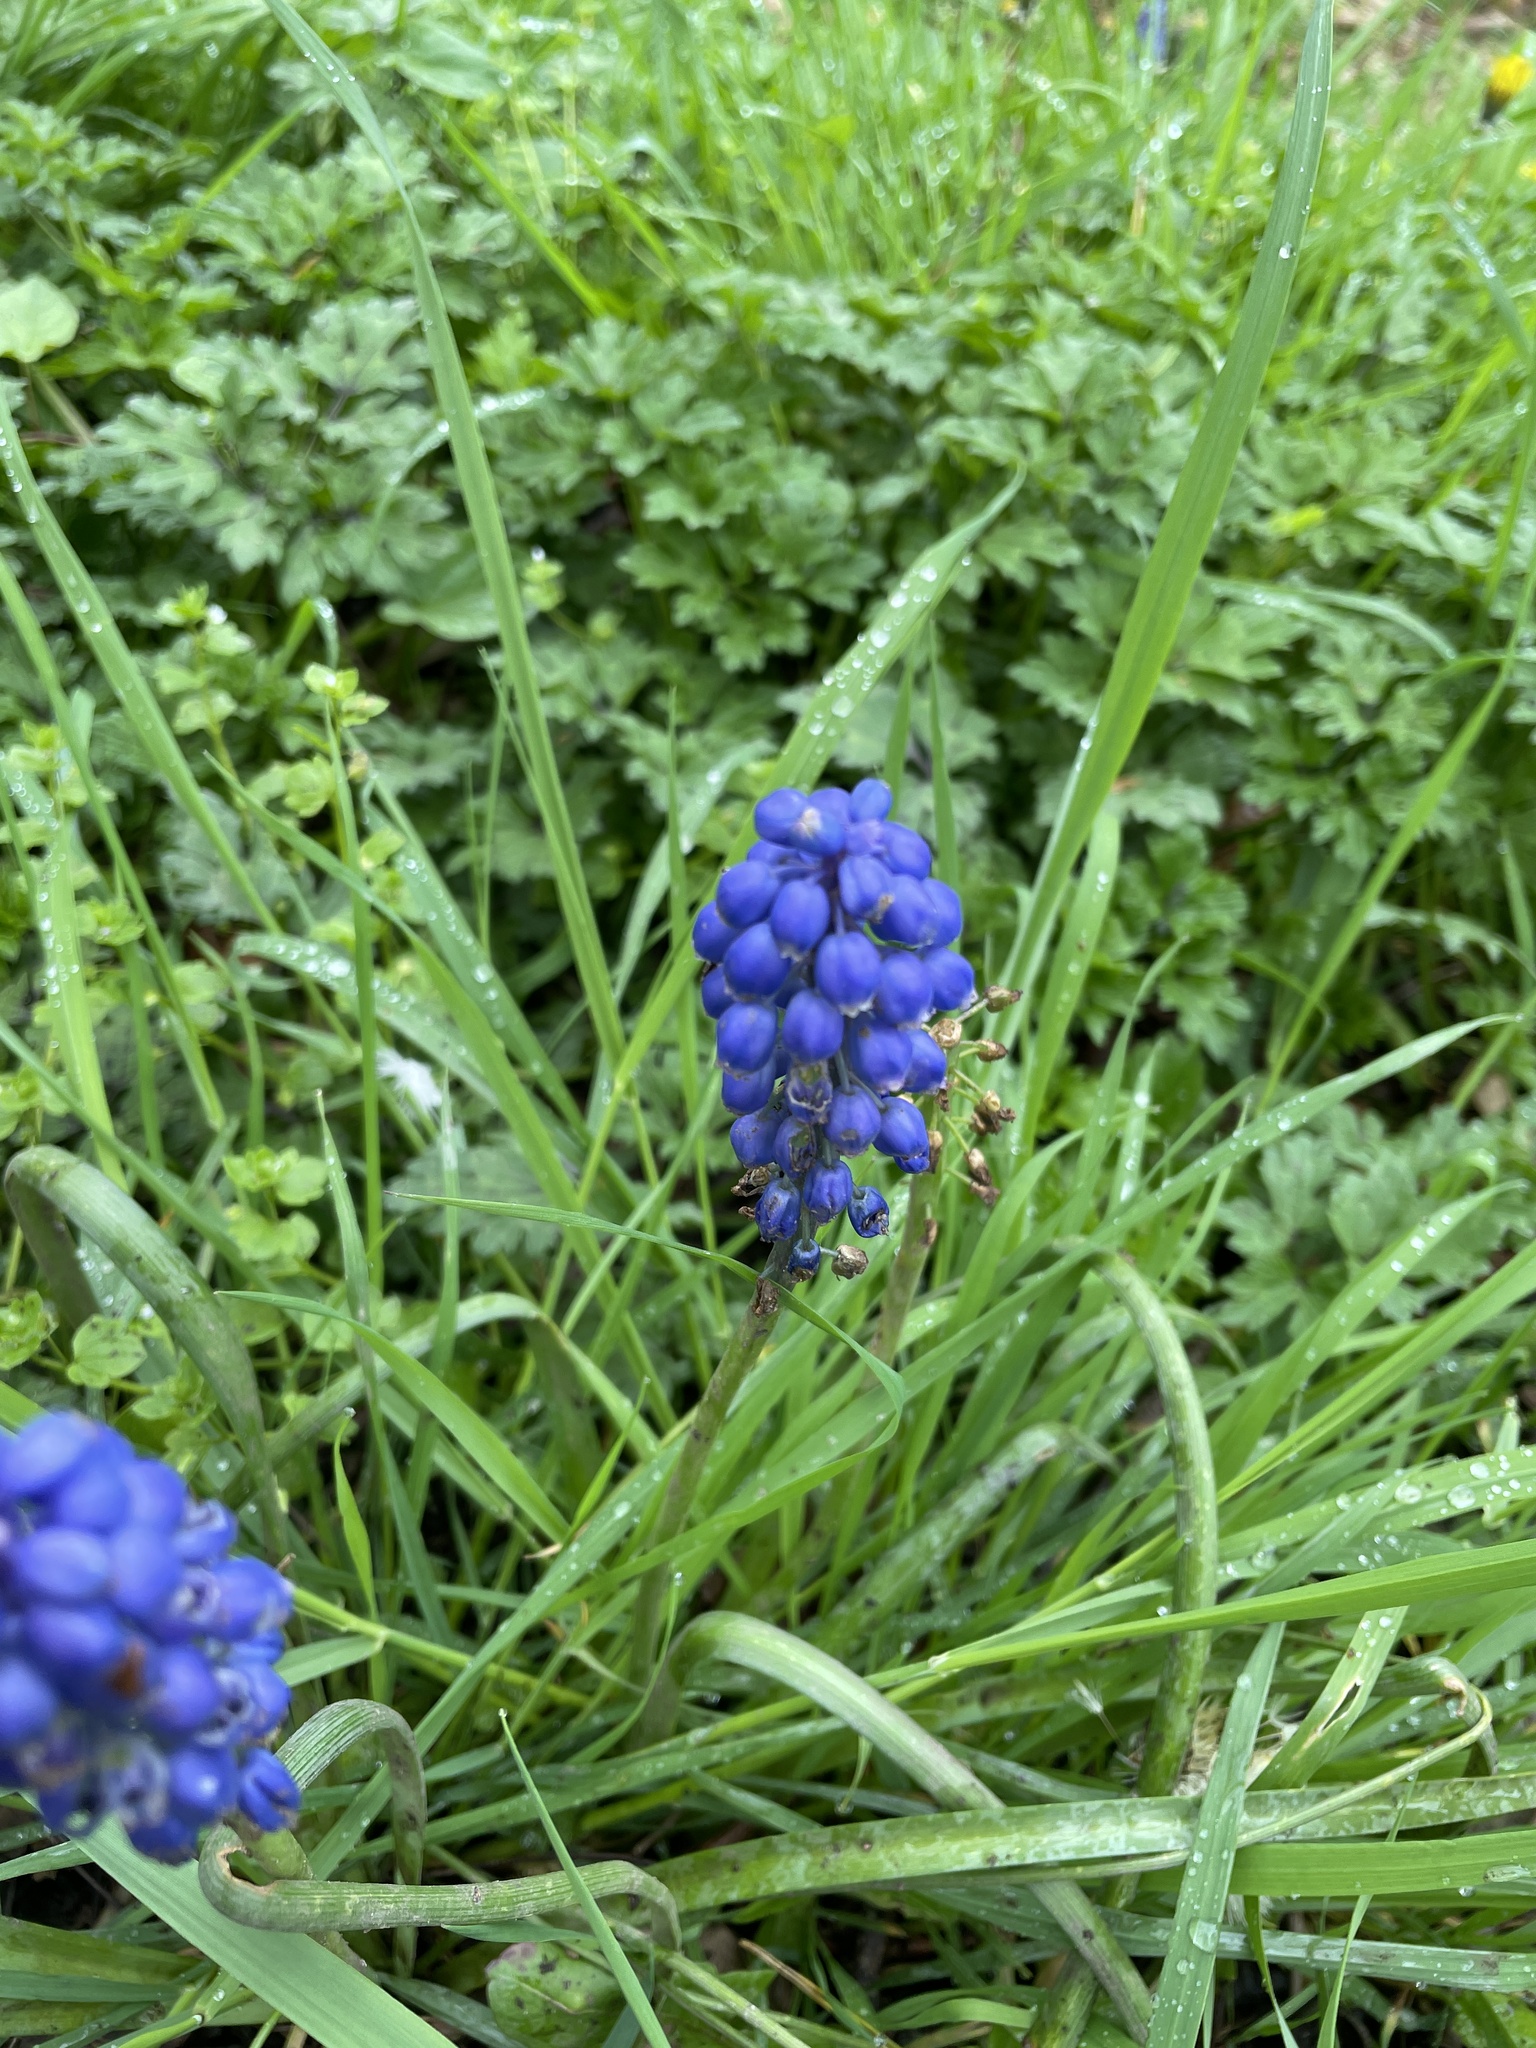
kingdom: Plantae
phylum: Tracheophyta
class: Liliopsida
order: Asparagales
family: Asparagaceae
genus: Muscari
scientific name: Muscari armeniacum
